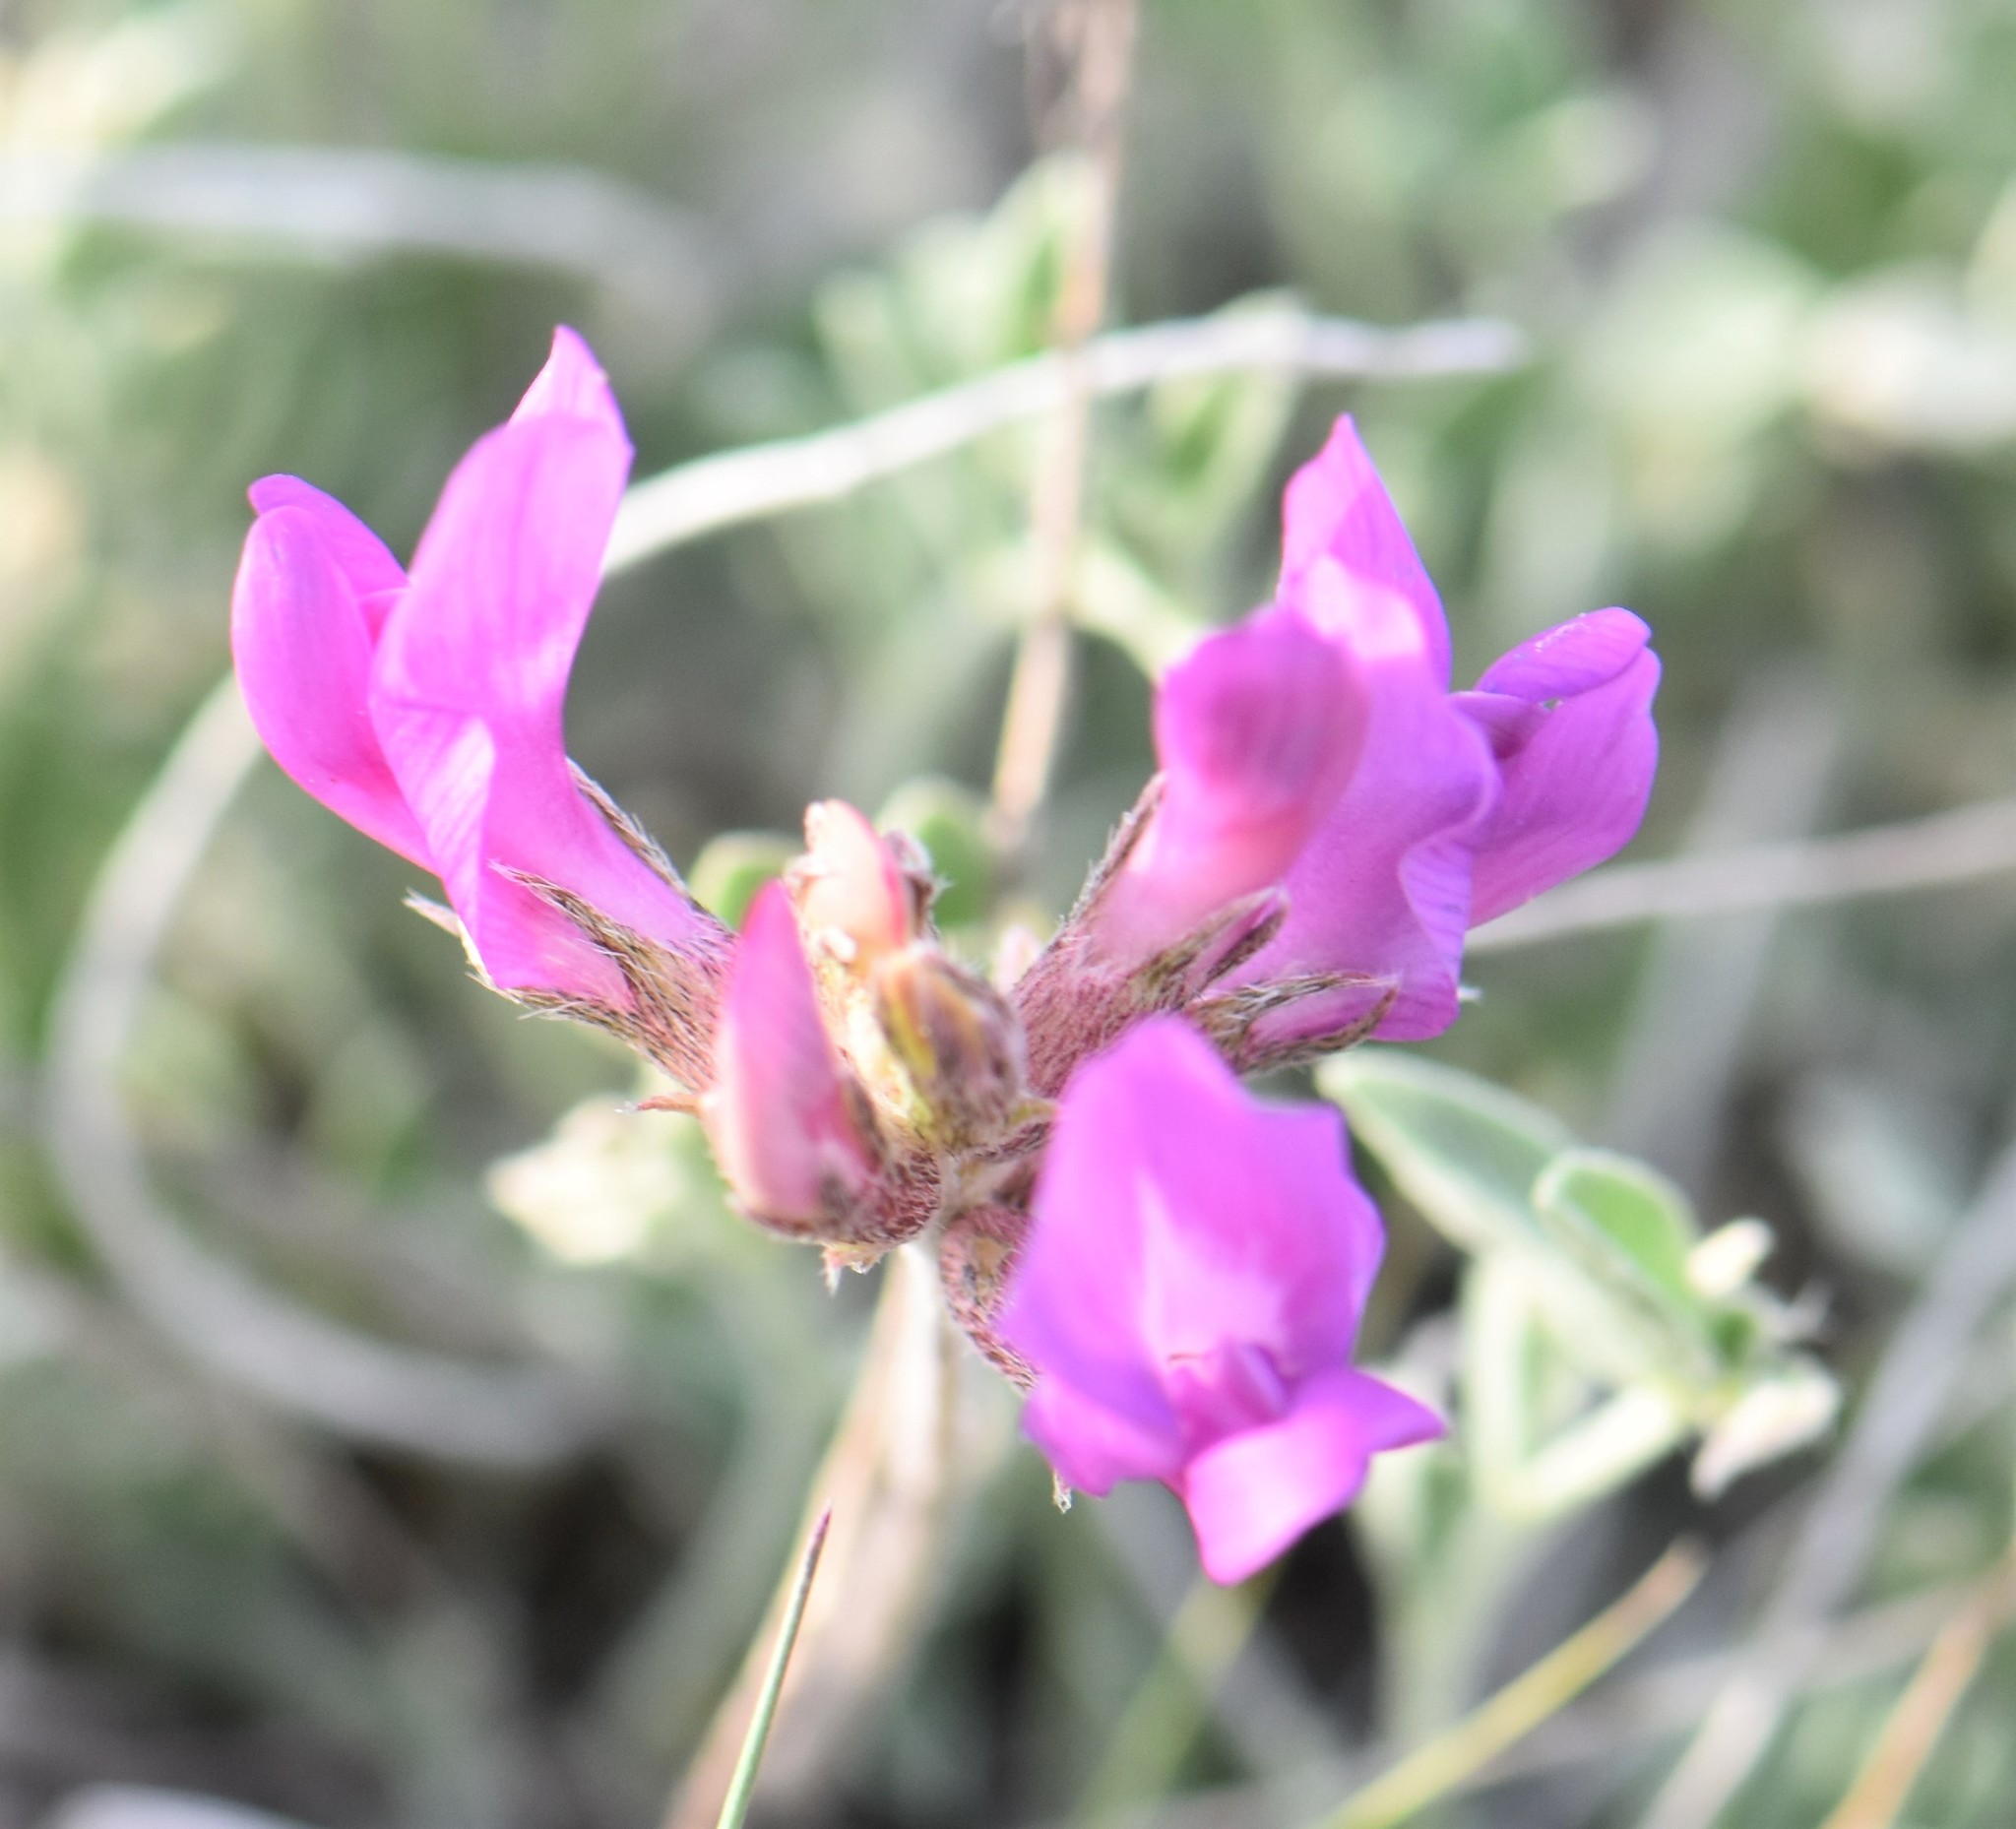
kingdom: Plantae
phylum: Tracheophyta
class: Magnoliopsida
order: Fabales
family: Fabaceae
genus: Astragalus
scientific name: Astragalus missouriensis
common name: Missouri milk-vetch
